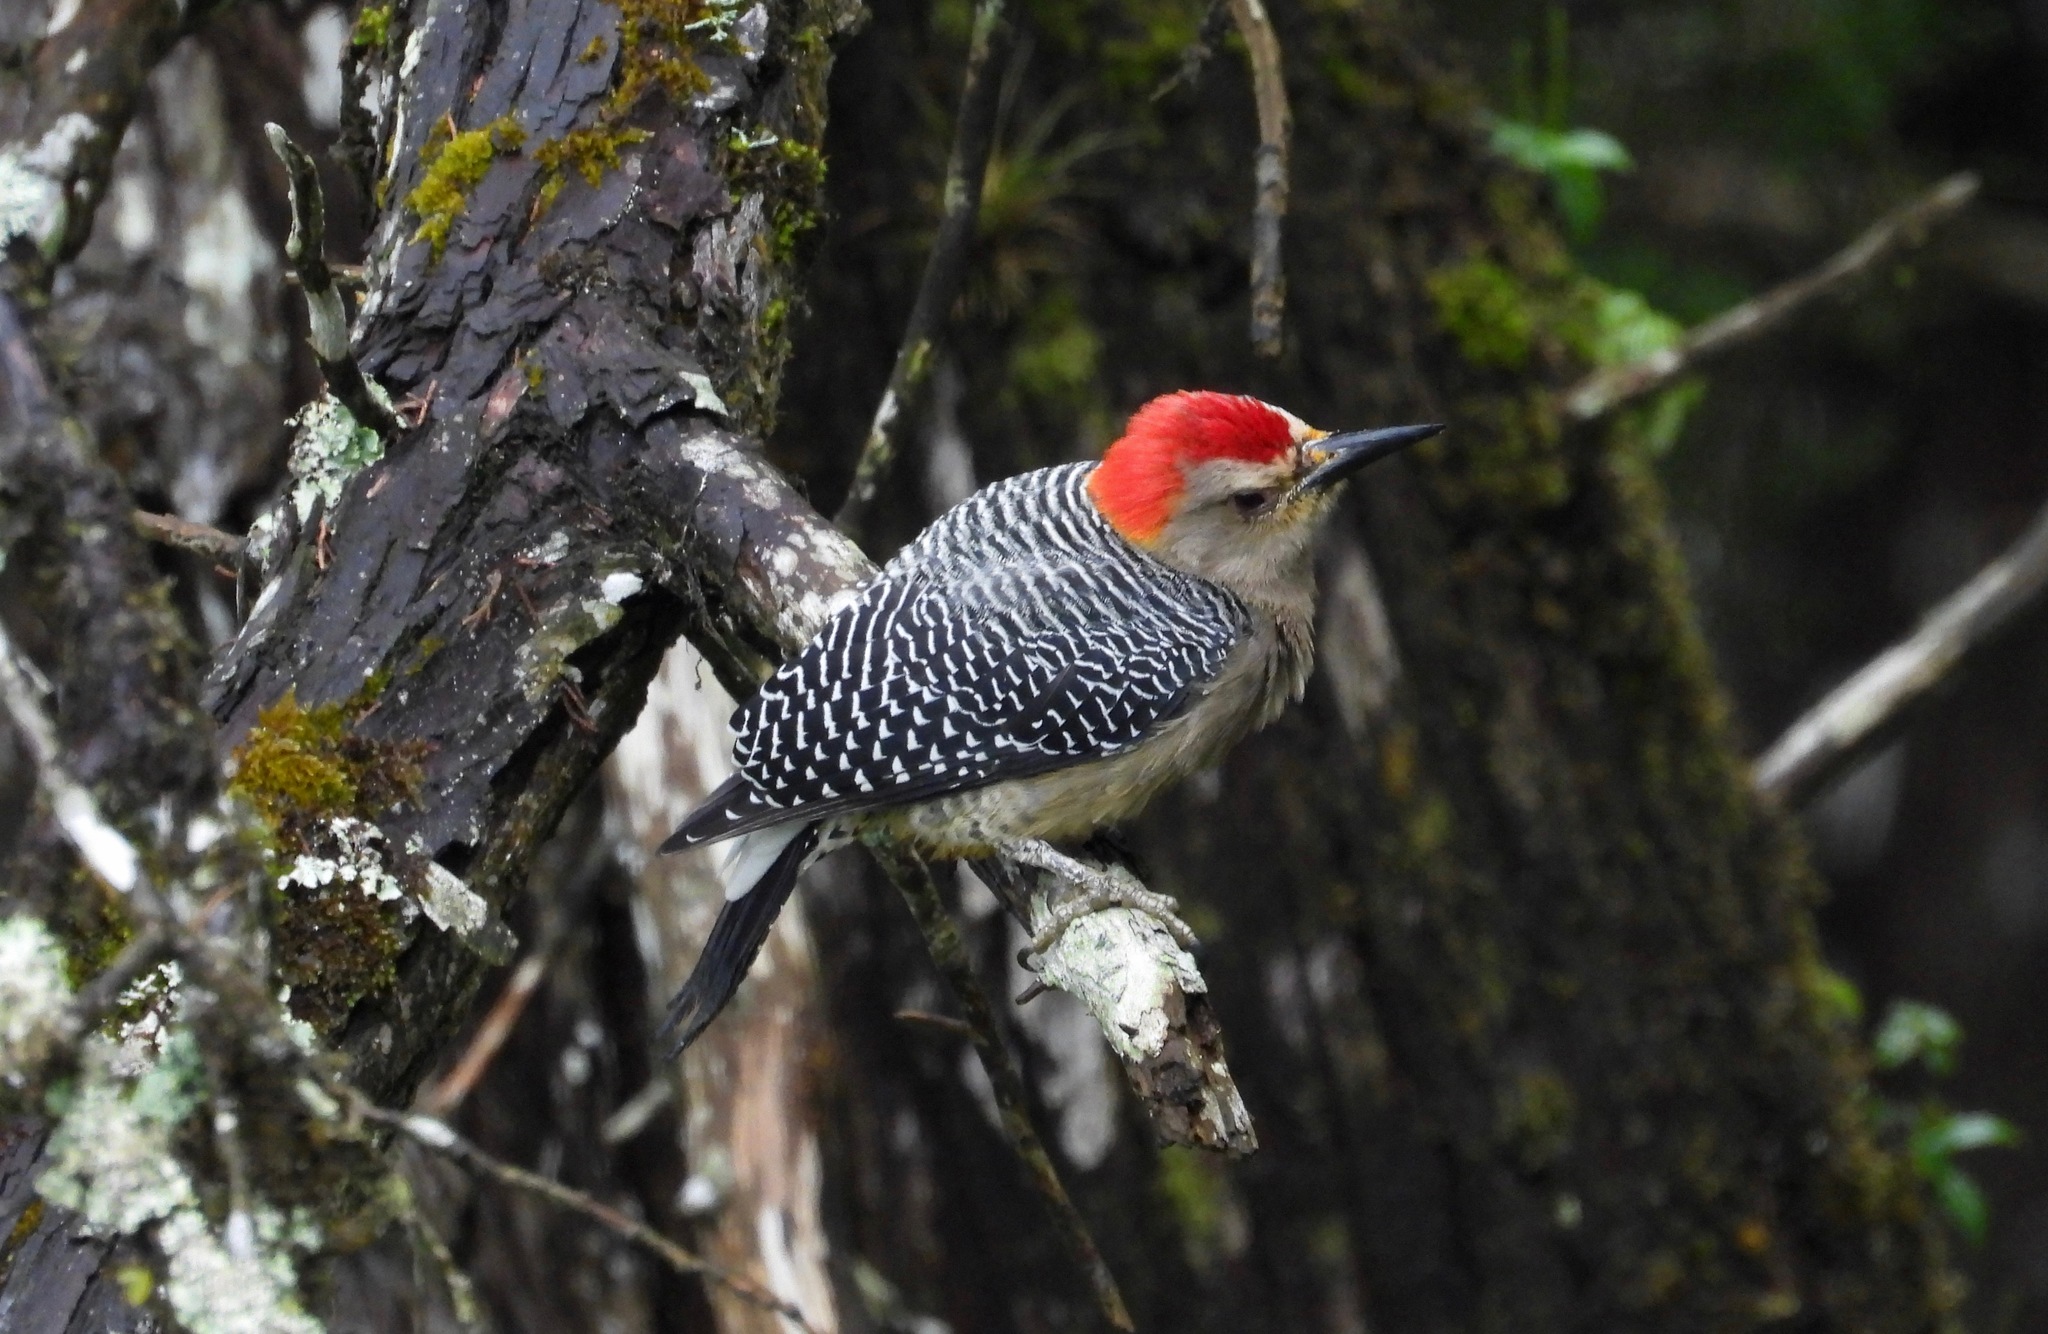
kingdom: Animalia
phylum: Chordata
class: Aves
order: Piciformes
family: Picidae
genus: Melanerpes
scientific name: Melanerpes aurifrons
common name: Golden-fronted woodpecker
